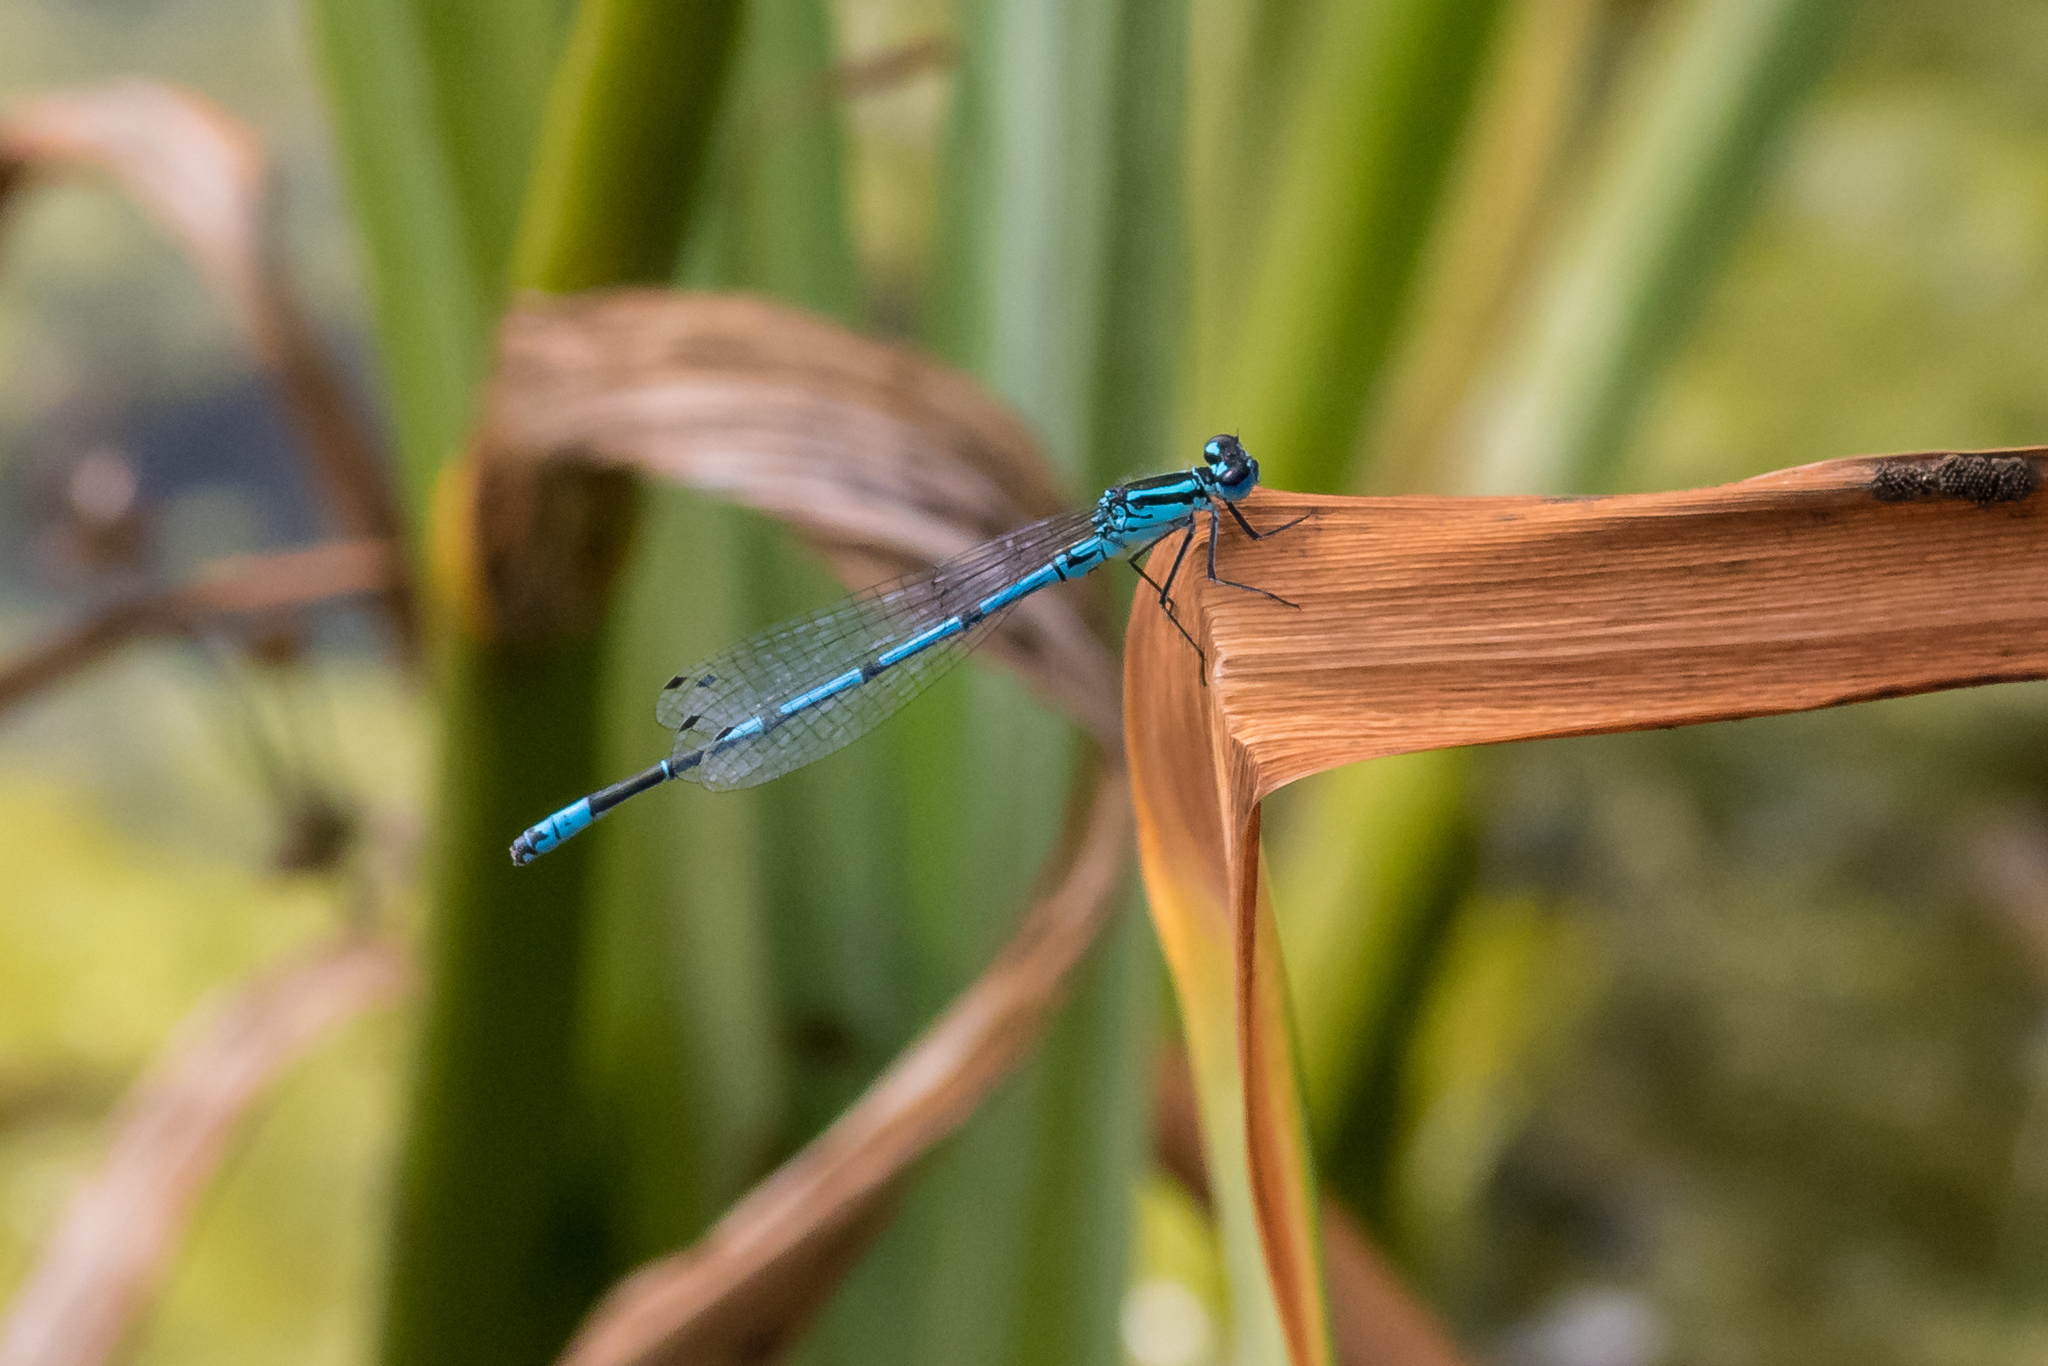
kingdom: Animalia
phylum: Arthropoda
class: Insecta
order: Odonata
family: Coenagrionidae
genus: Coenagrion
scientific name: Coenagrion puella
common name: Azure damselfly
